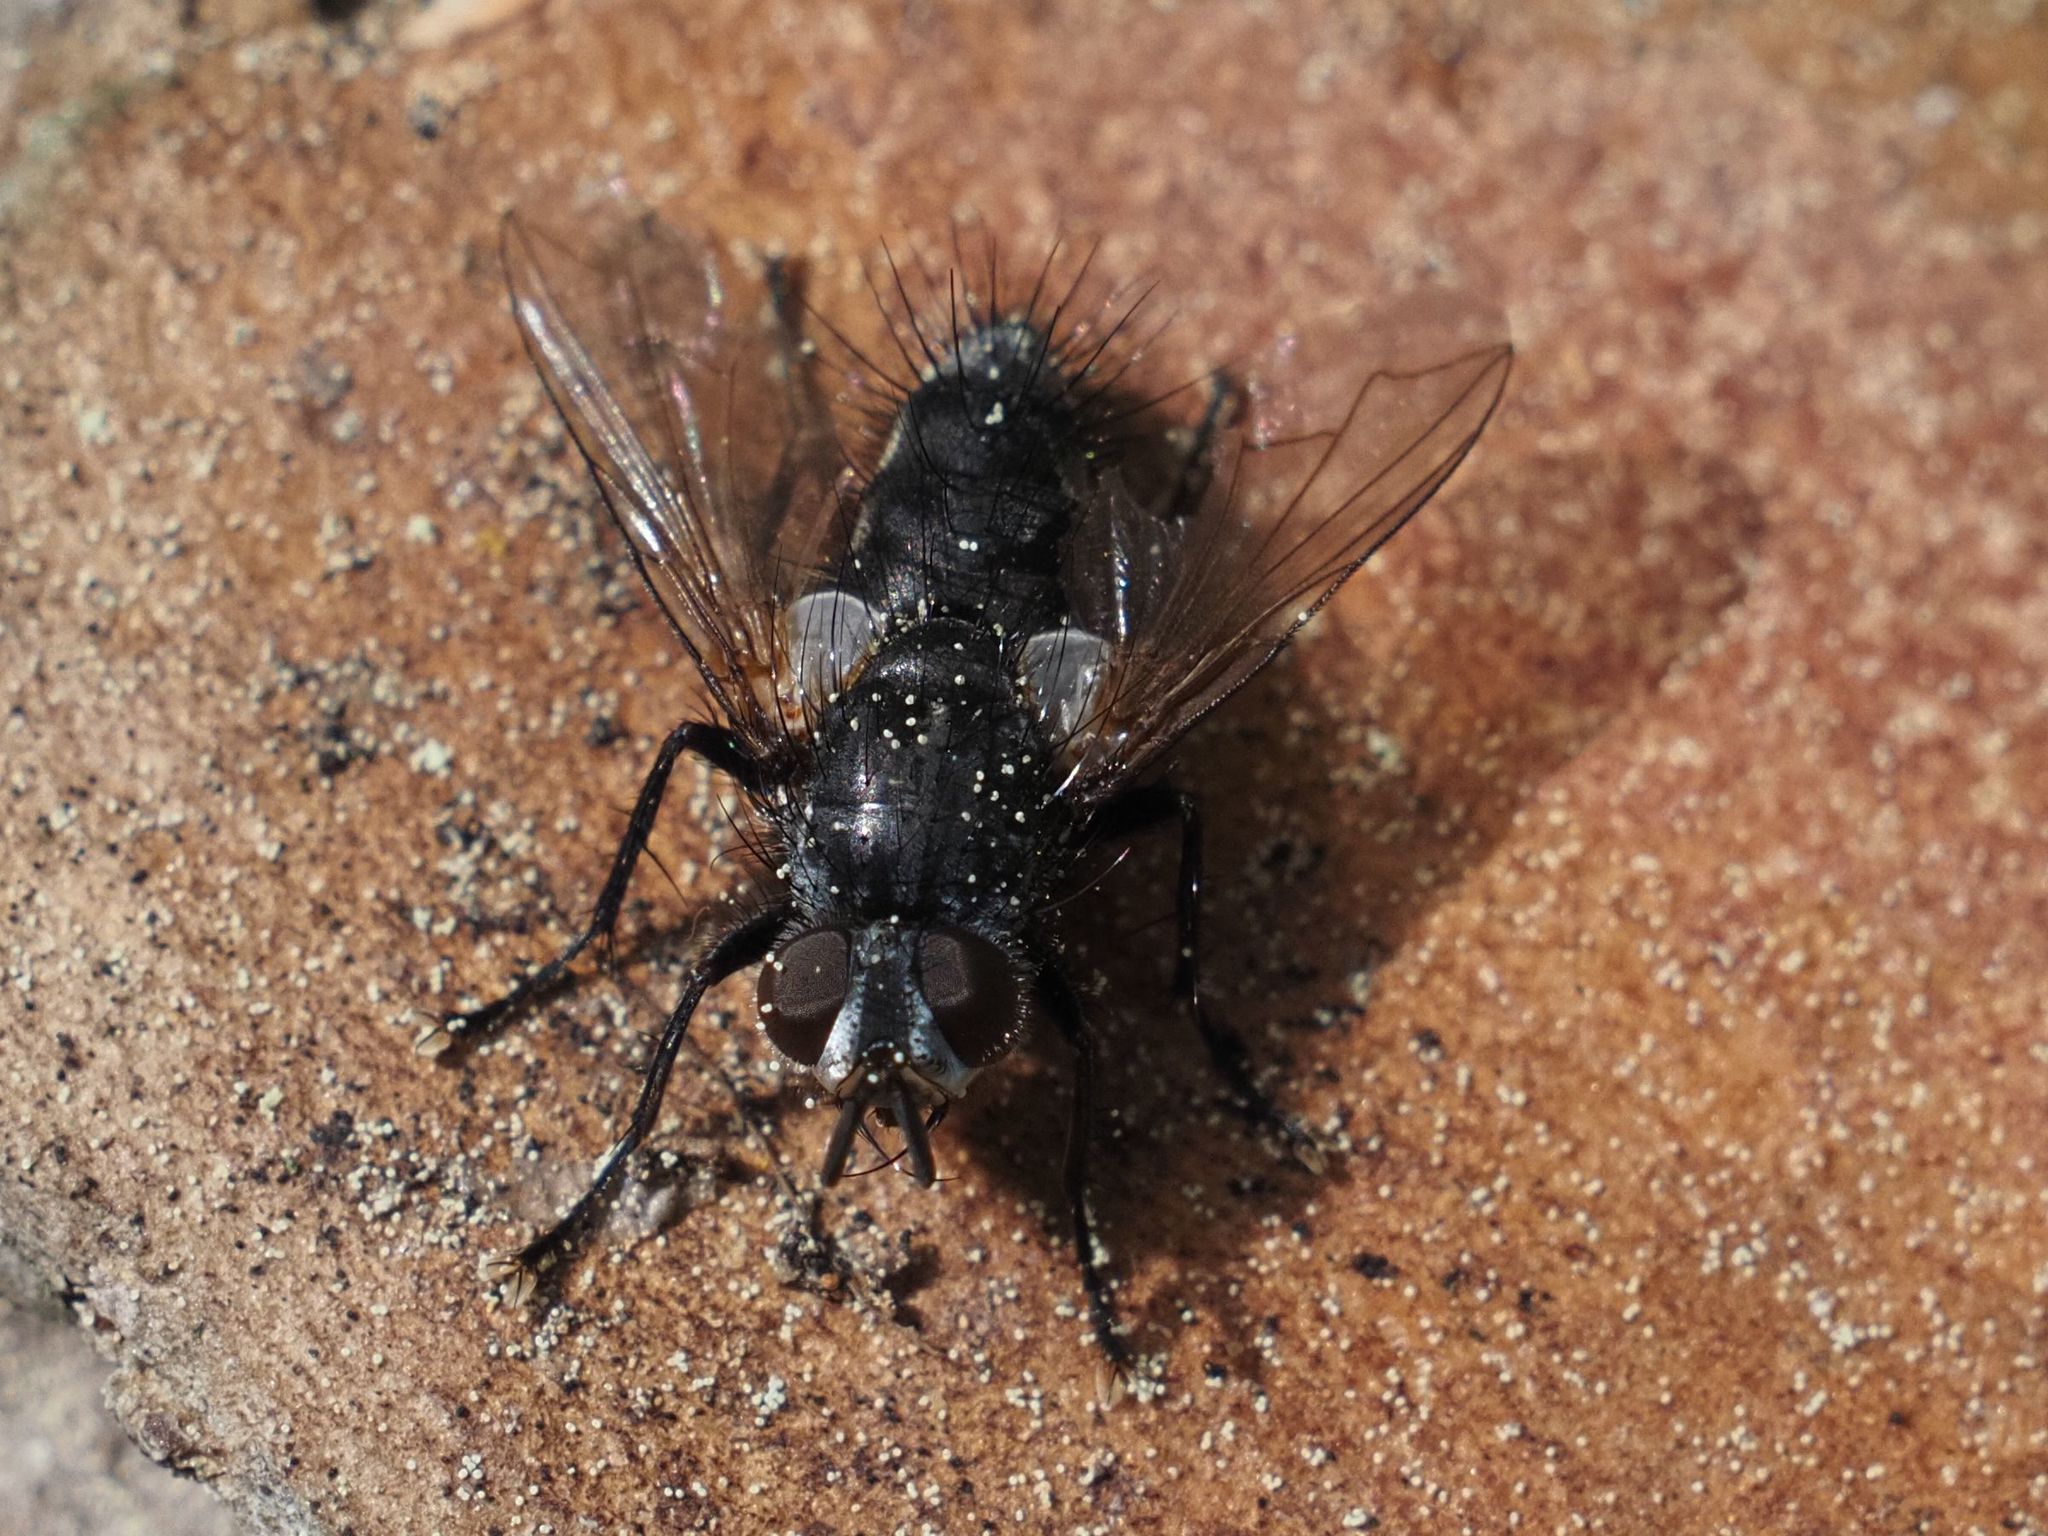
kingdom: Animalia
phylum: Arthropoda
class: Insecta
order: Diptera
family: Tachinidae
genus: Phorocera
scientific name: Phorocera obscura
